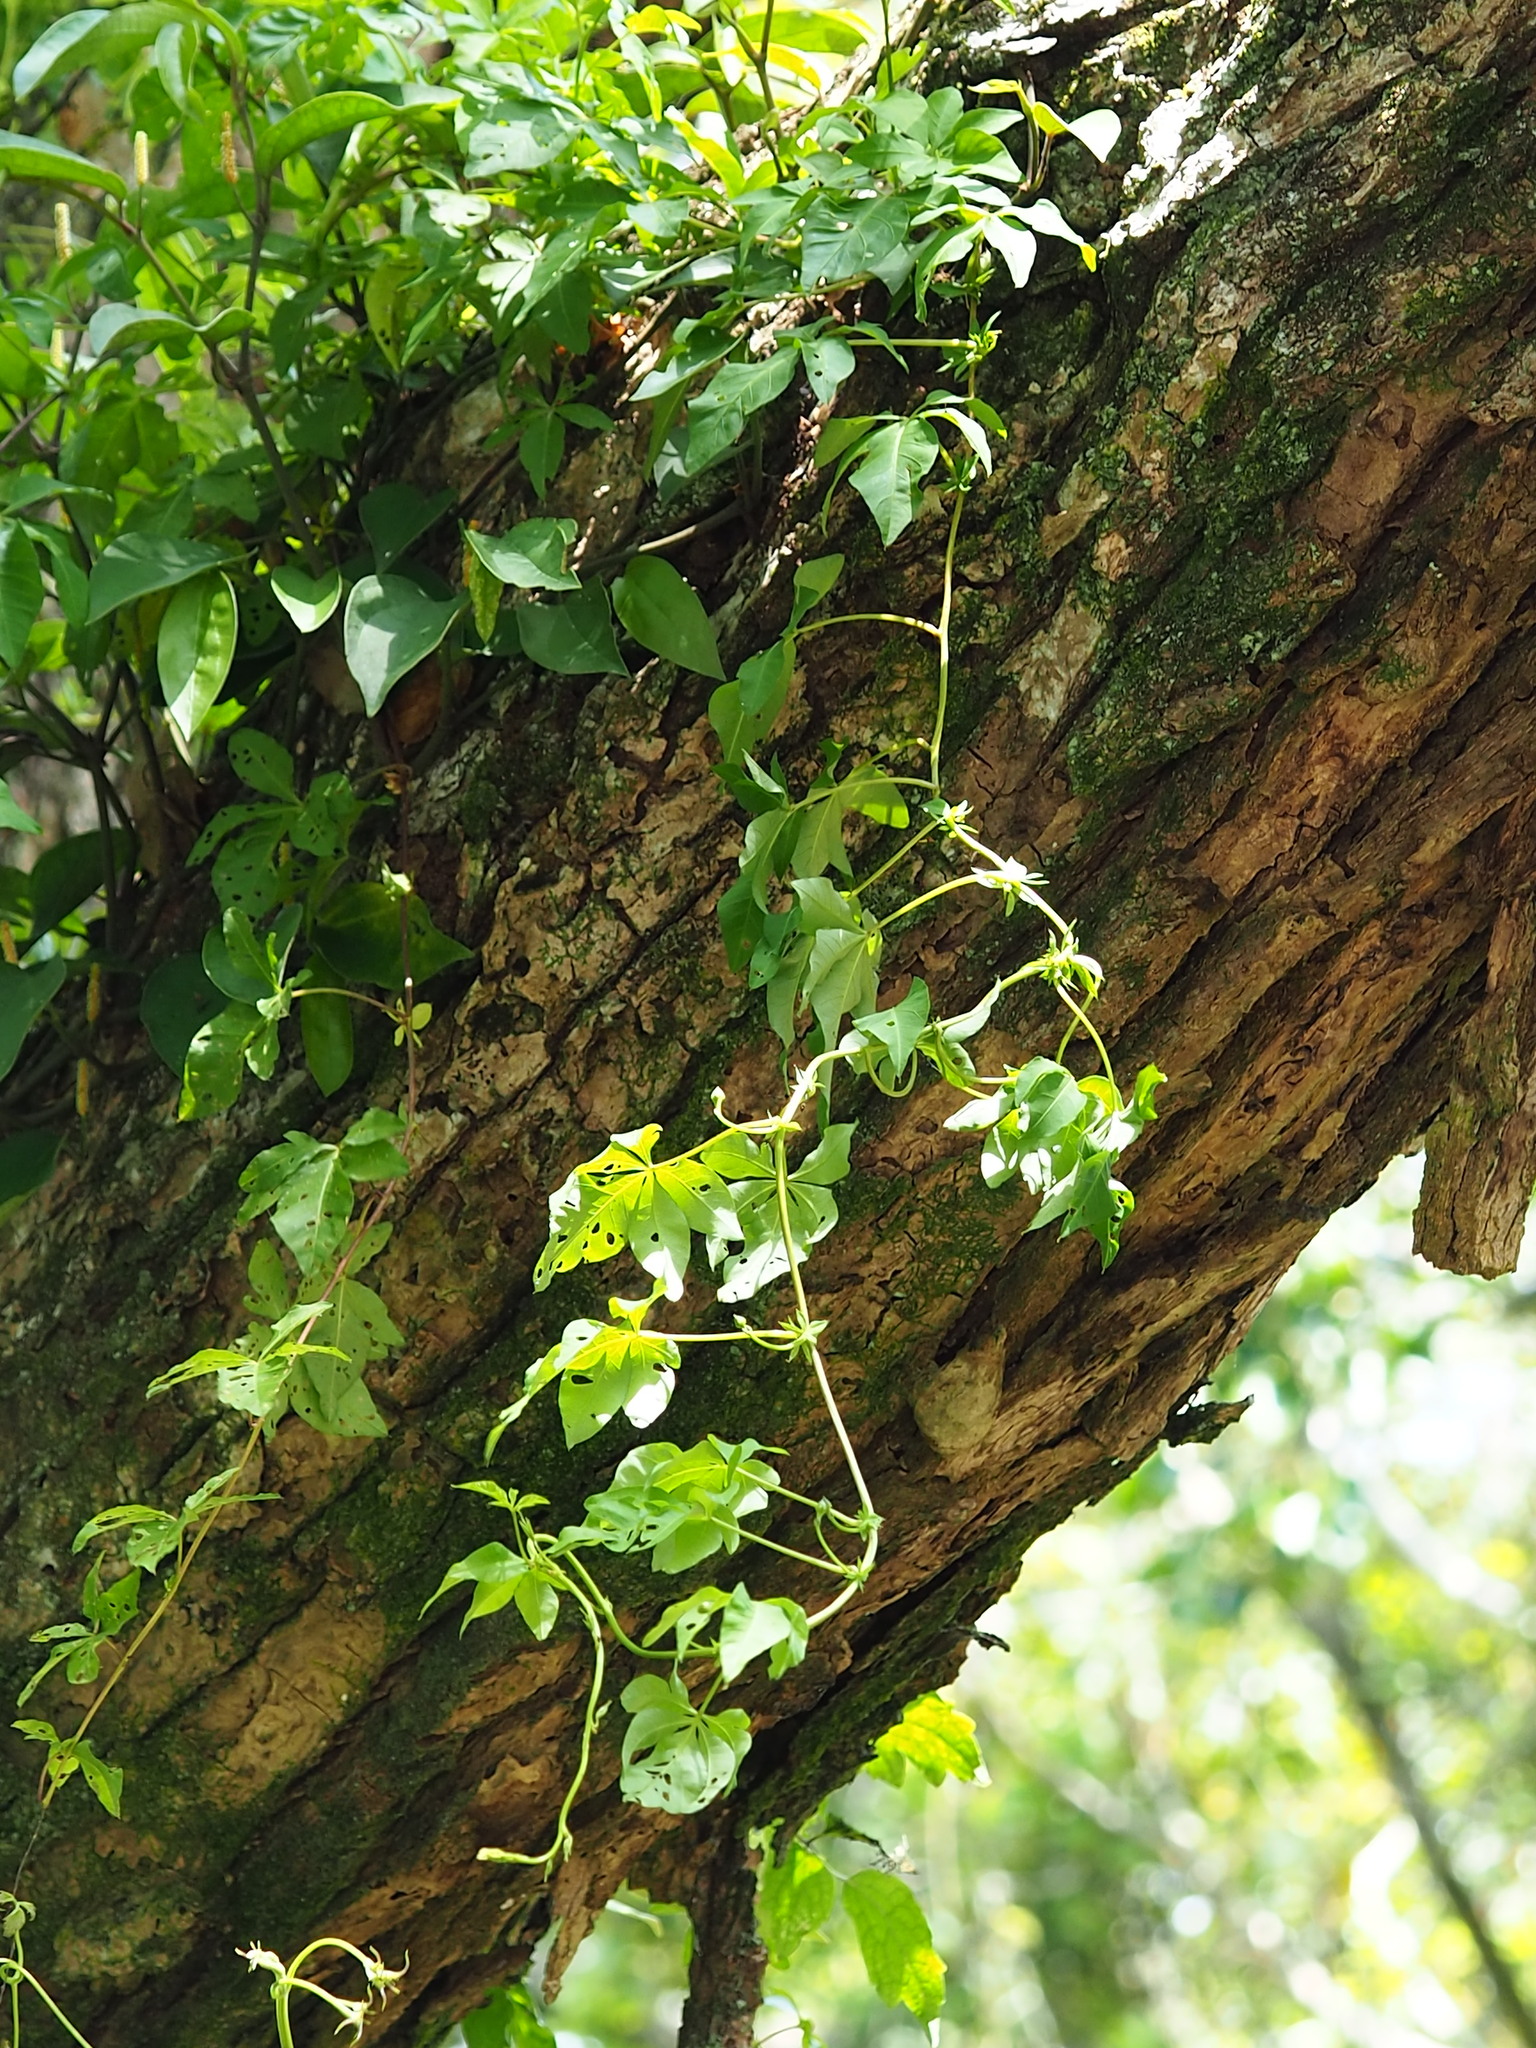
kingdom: Plantae
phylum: Tracheophyta
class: Magnoliopsida
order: Solanales
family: Convolvulaceae
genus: Ipomoea
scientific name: Ipomoea cairica
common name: Mile a minute vine
